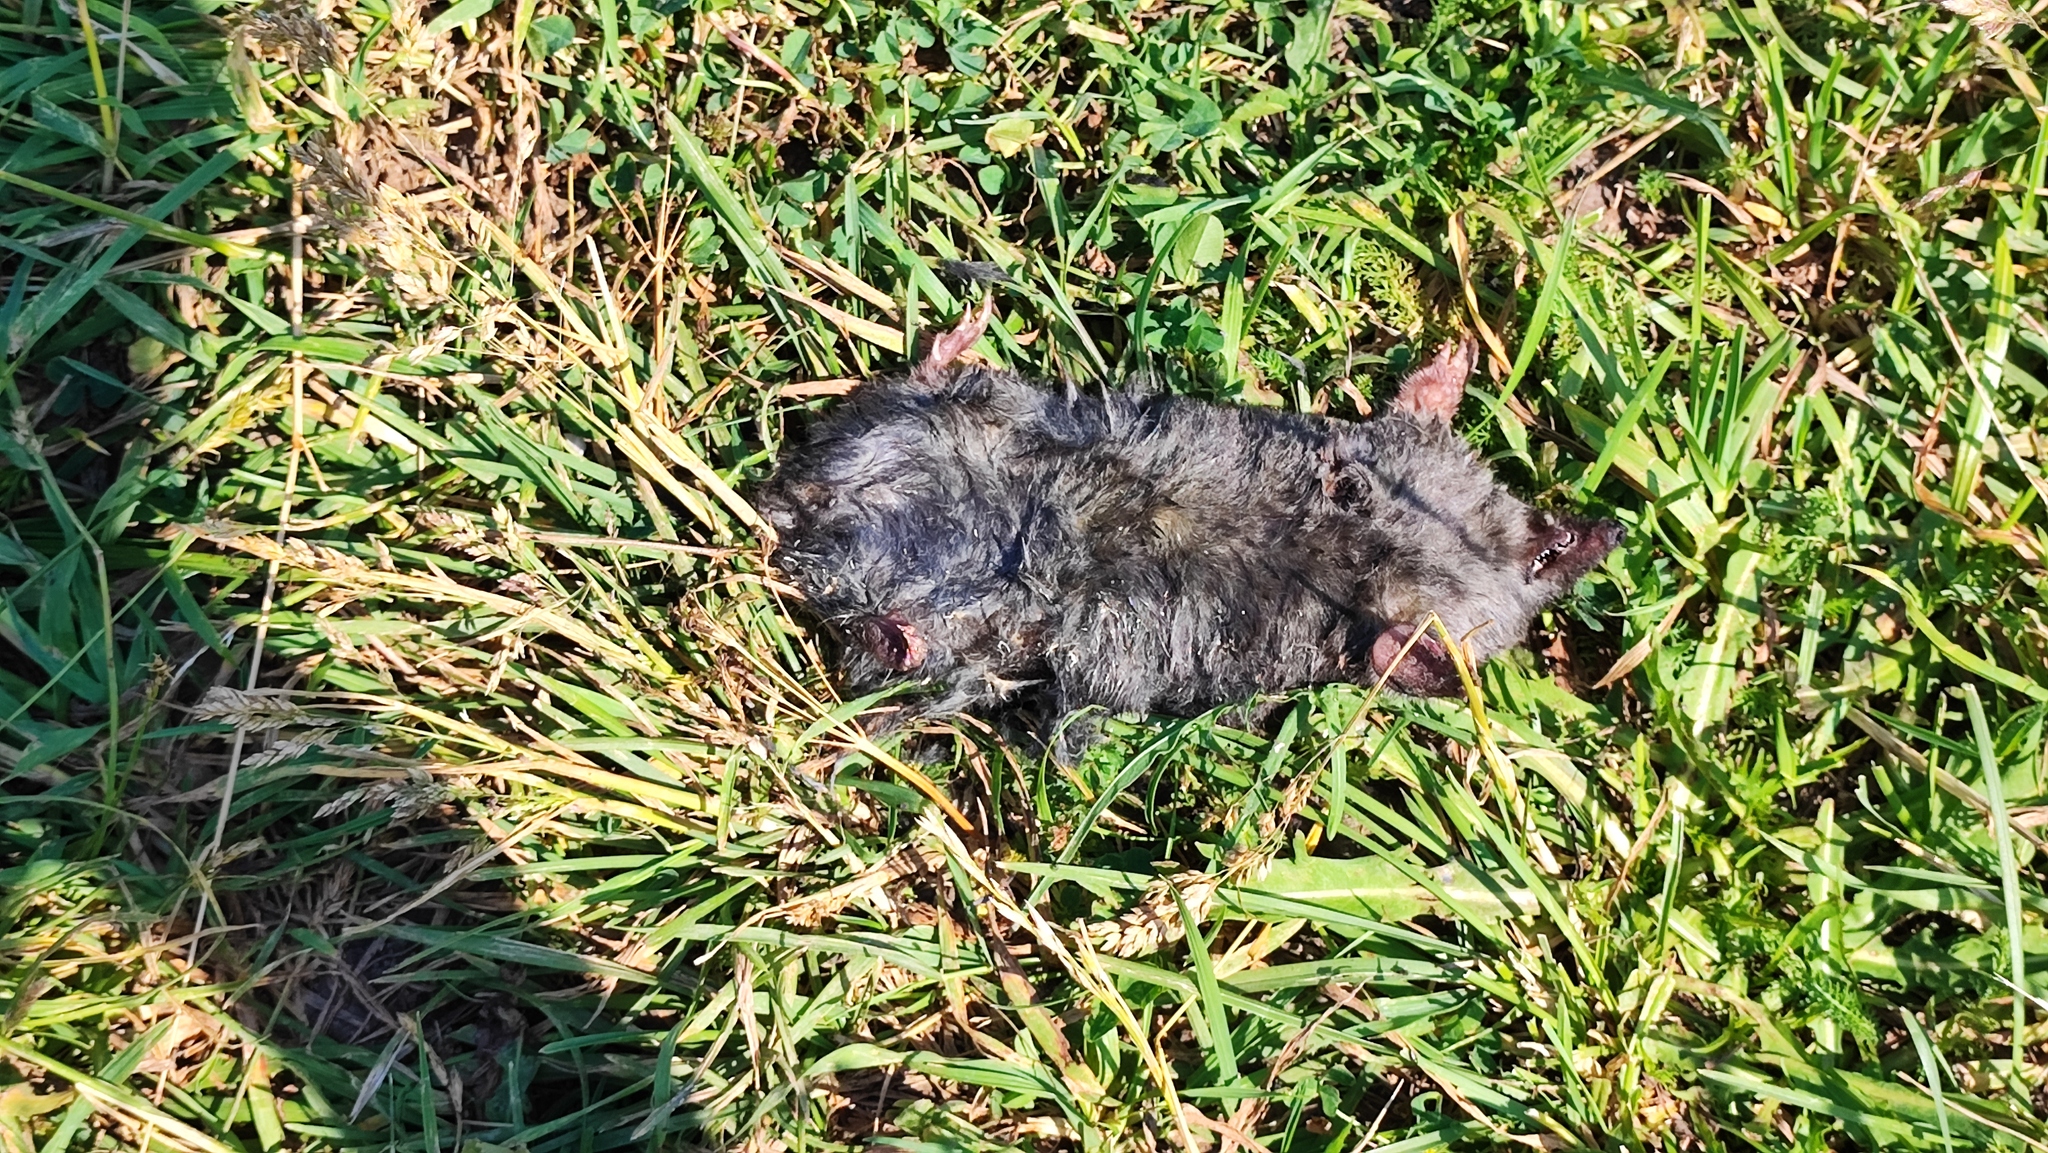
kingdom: Animalia
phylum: Chordata
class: Mammalia
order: Soricomorpha
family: Talpidae
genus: Talpa
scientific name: Talpa europaea
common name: European mole
